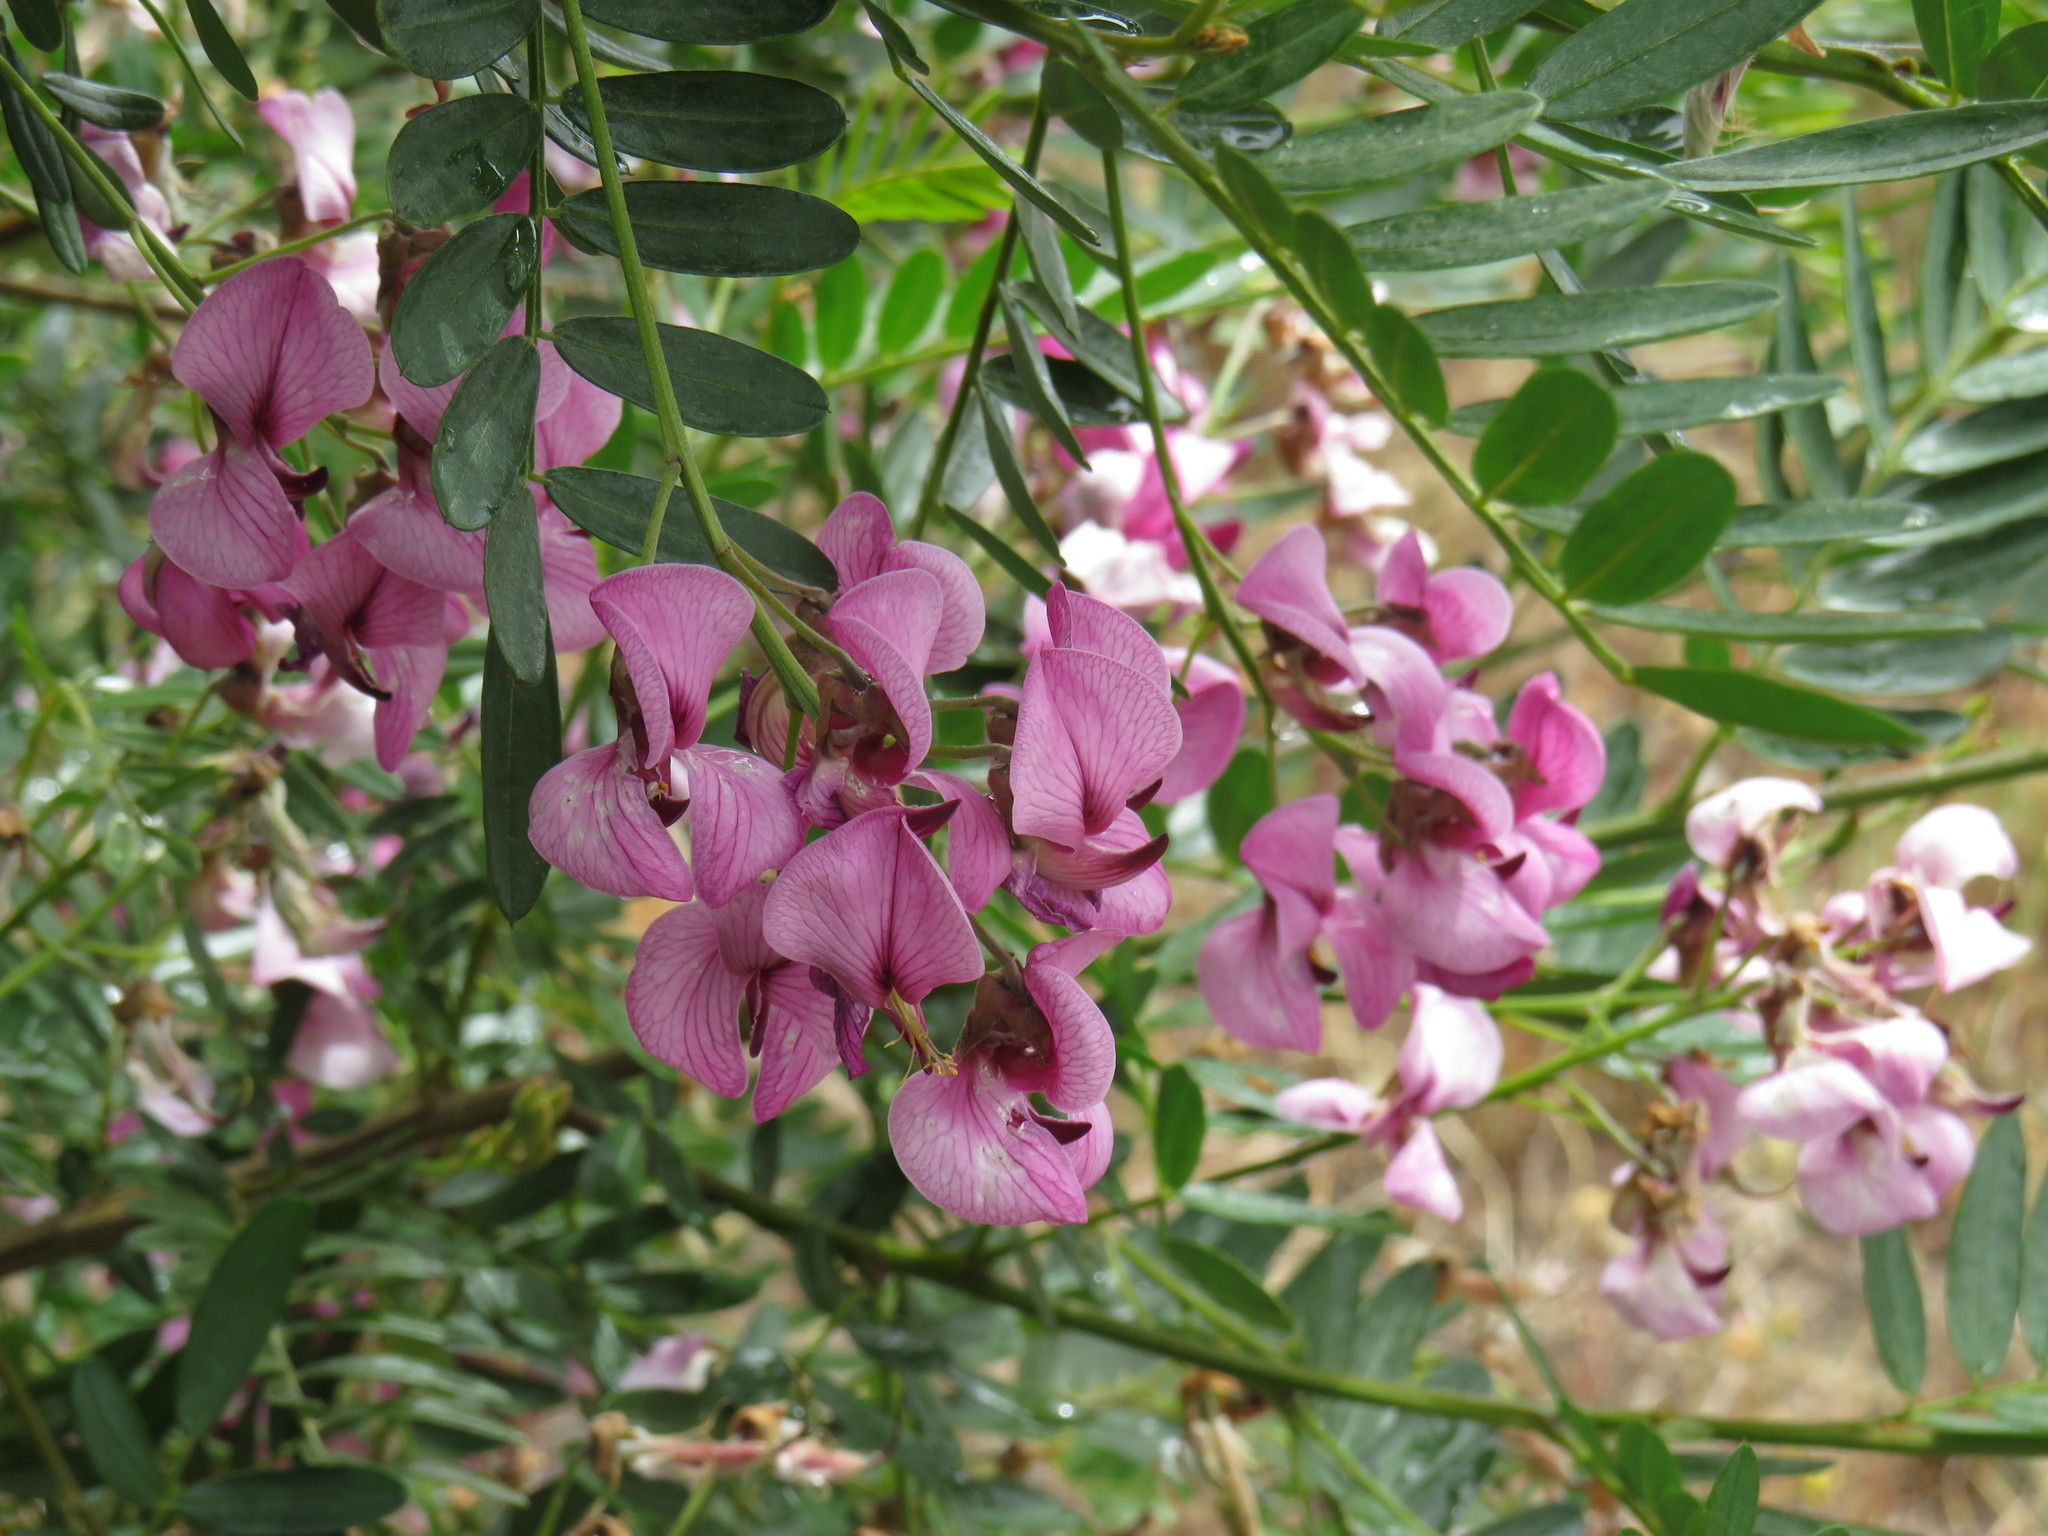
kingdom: Plantae
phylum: Tracheophyta
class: Magnoliopsida
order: Fabales
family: Fabaceae
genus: Virgilia
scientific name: Virgilia oroboides
